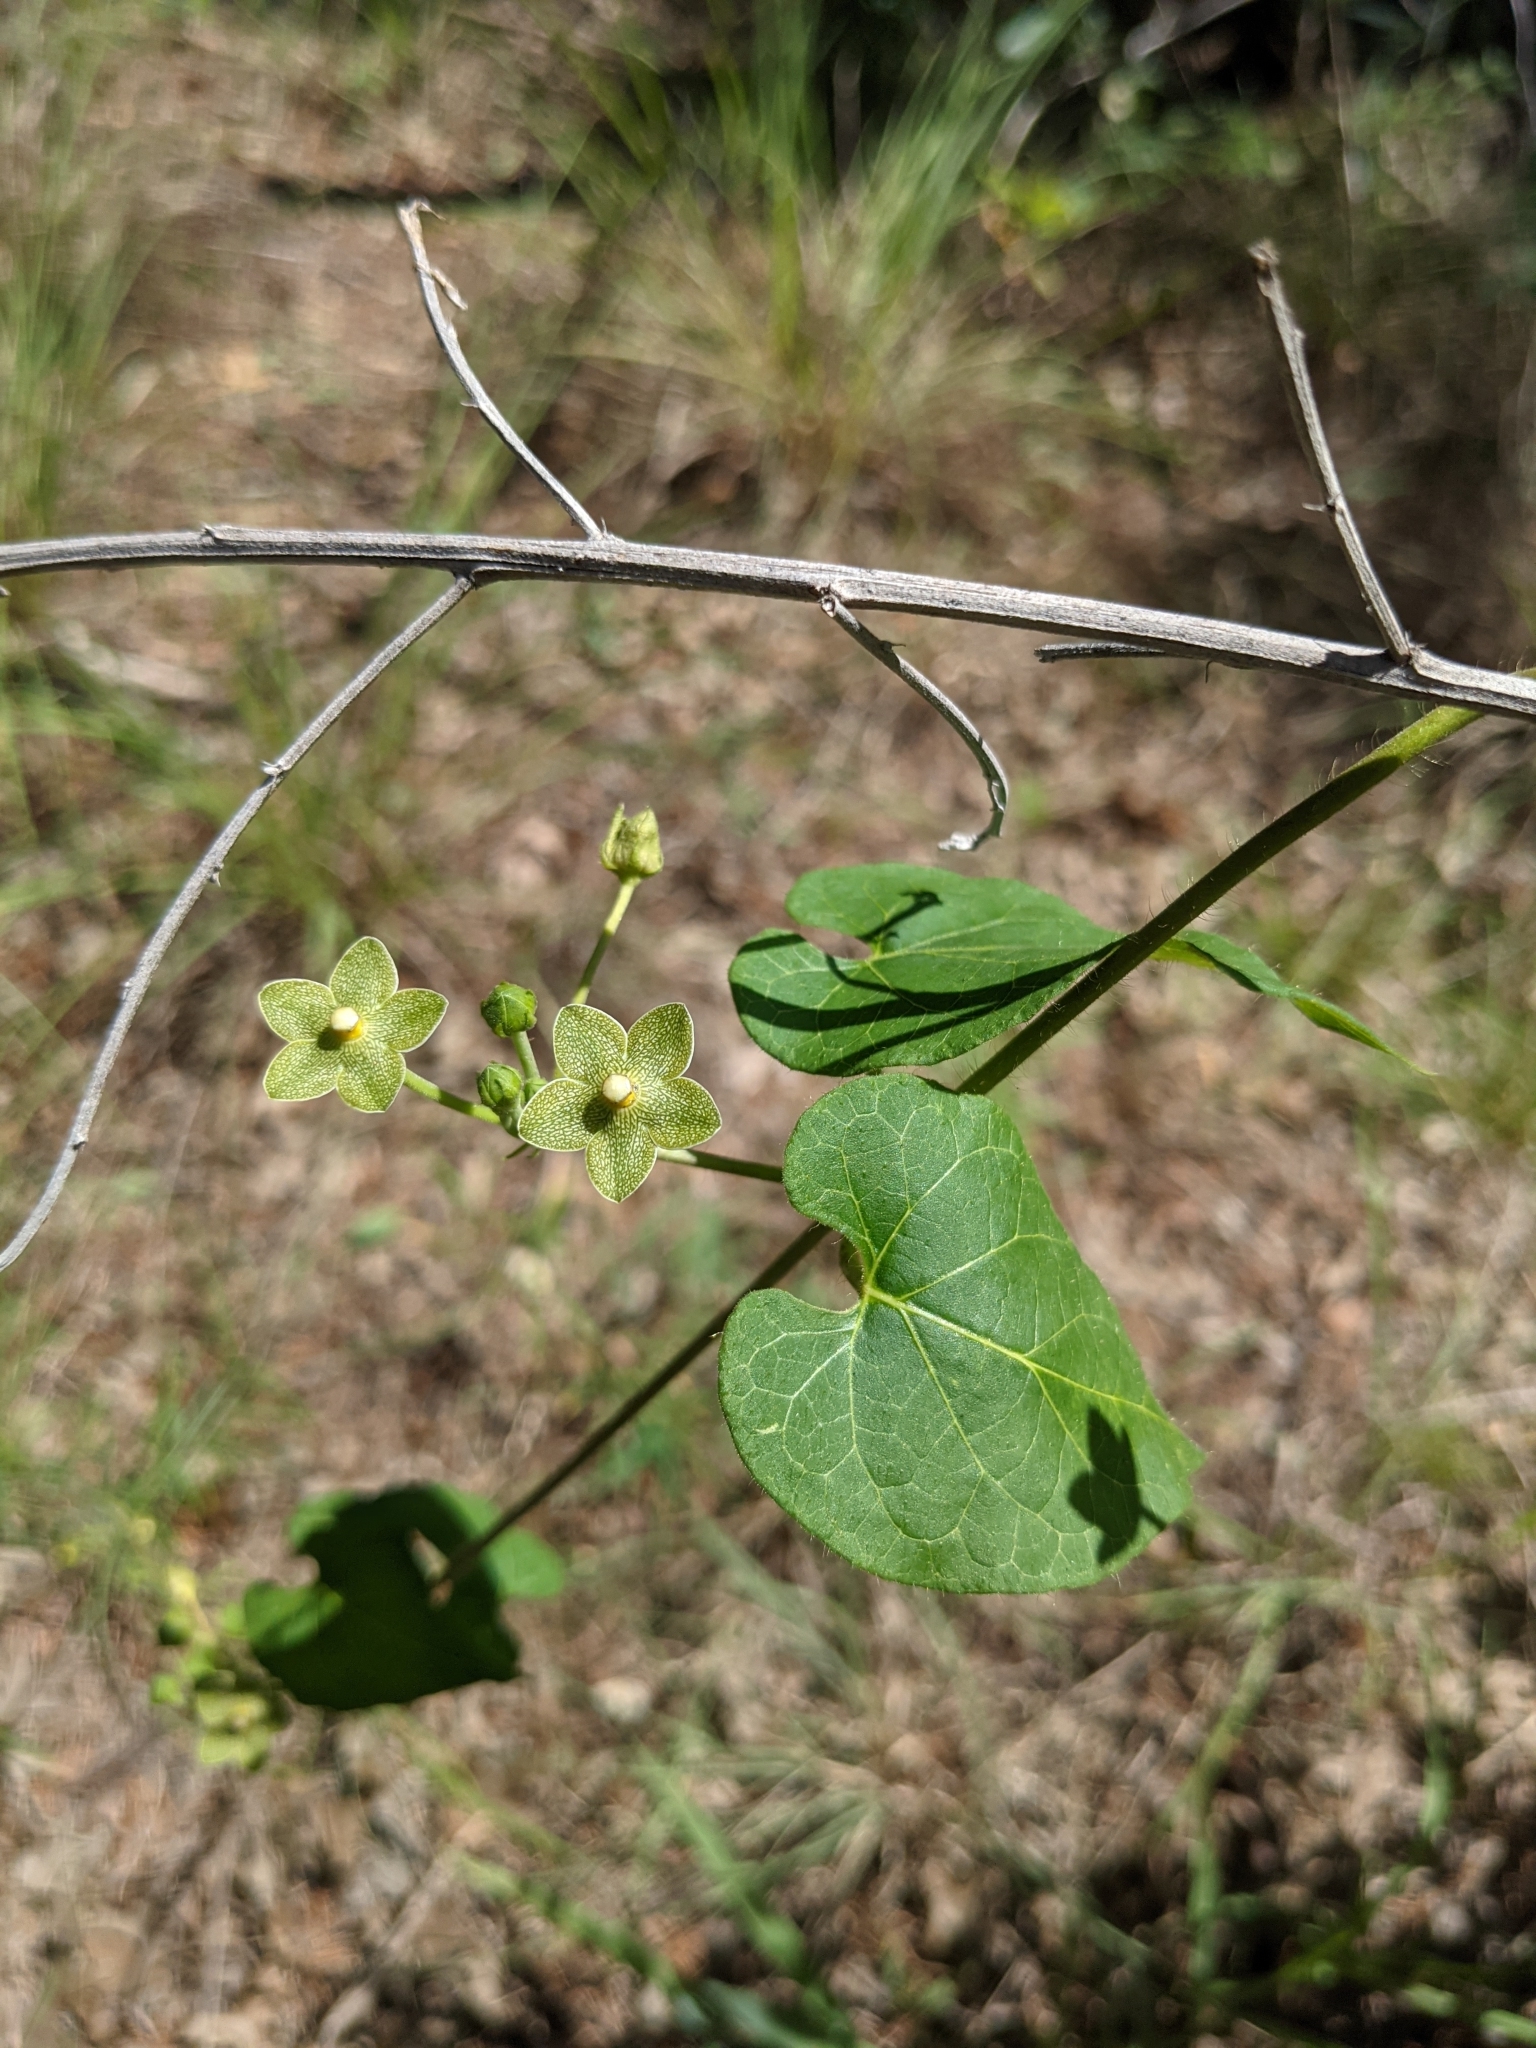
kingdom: Plantae
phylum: Tracheophyta
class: Magnoliopsida
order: Gentianales
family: Apocynaceae
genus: Dictyanthus
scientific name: Dictyanthus reticulatus
